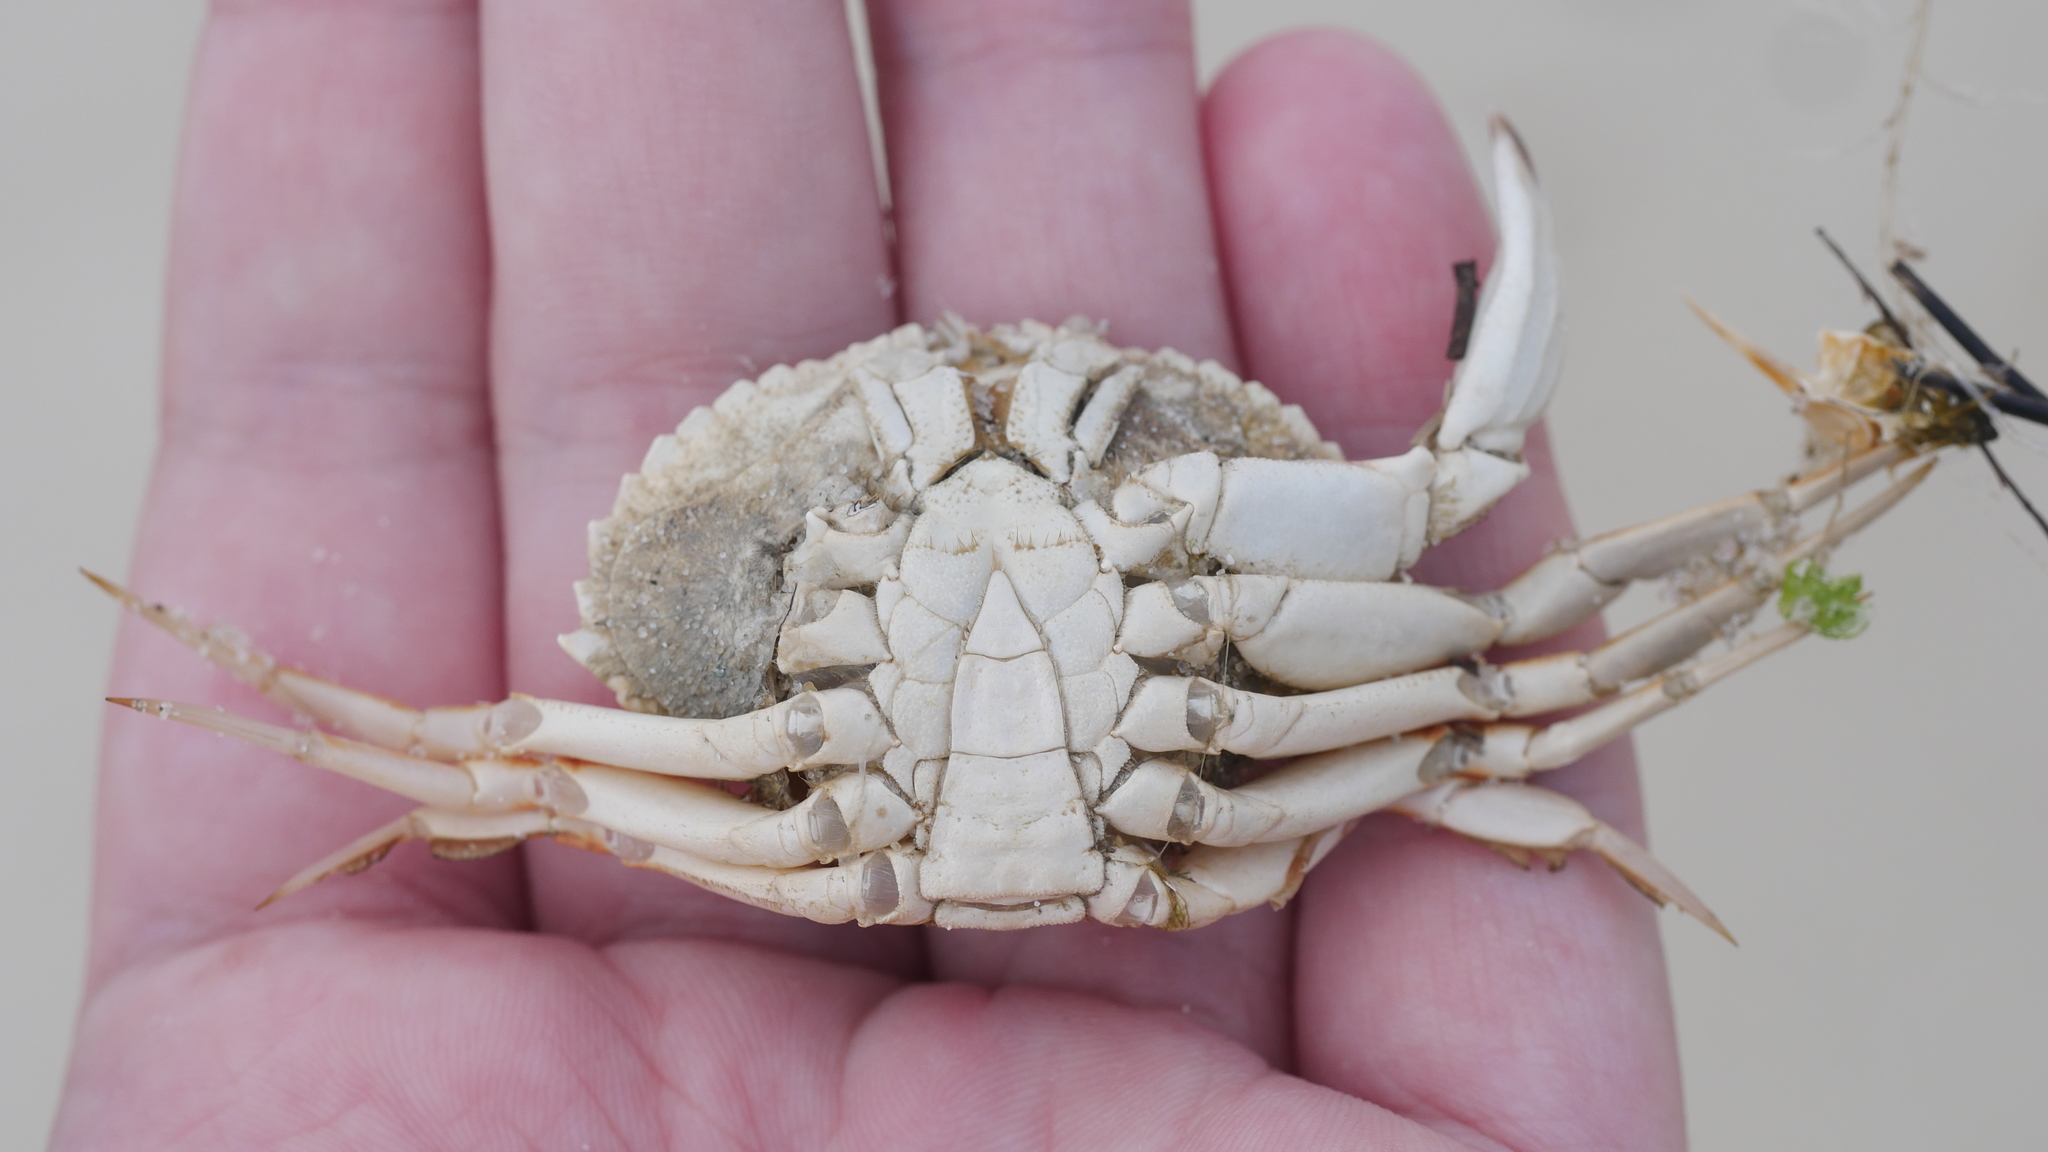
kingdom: Animalia
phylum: Arthropoda
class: Malacostraca
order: Decapoda
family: Cancridae
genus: Cancer
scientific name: Cancer irroratus
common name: Atlantic rock crab
